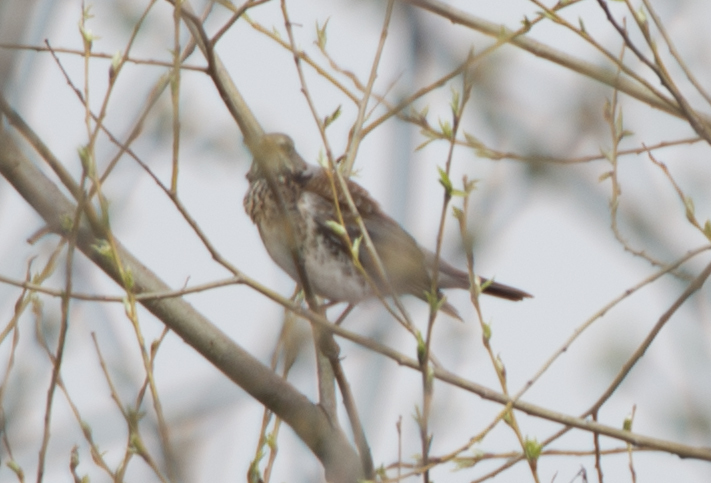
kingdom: Animalia
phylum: Chordata
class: Aves
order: Passeriformes
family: Turdidae
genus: Turdus
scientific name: Turdus pilaris
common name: Fieldfare
